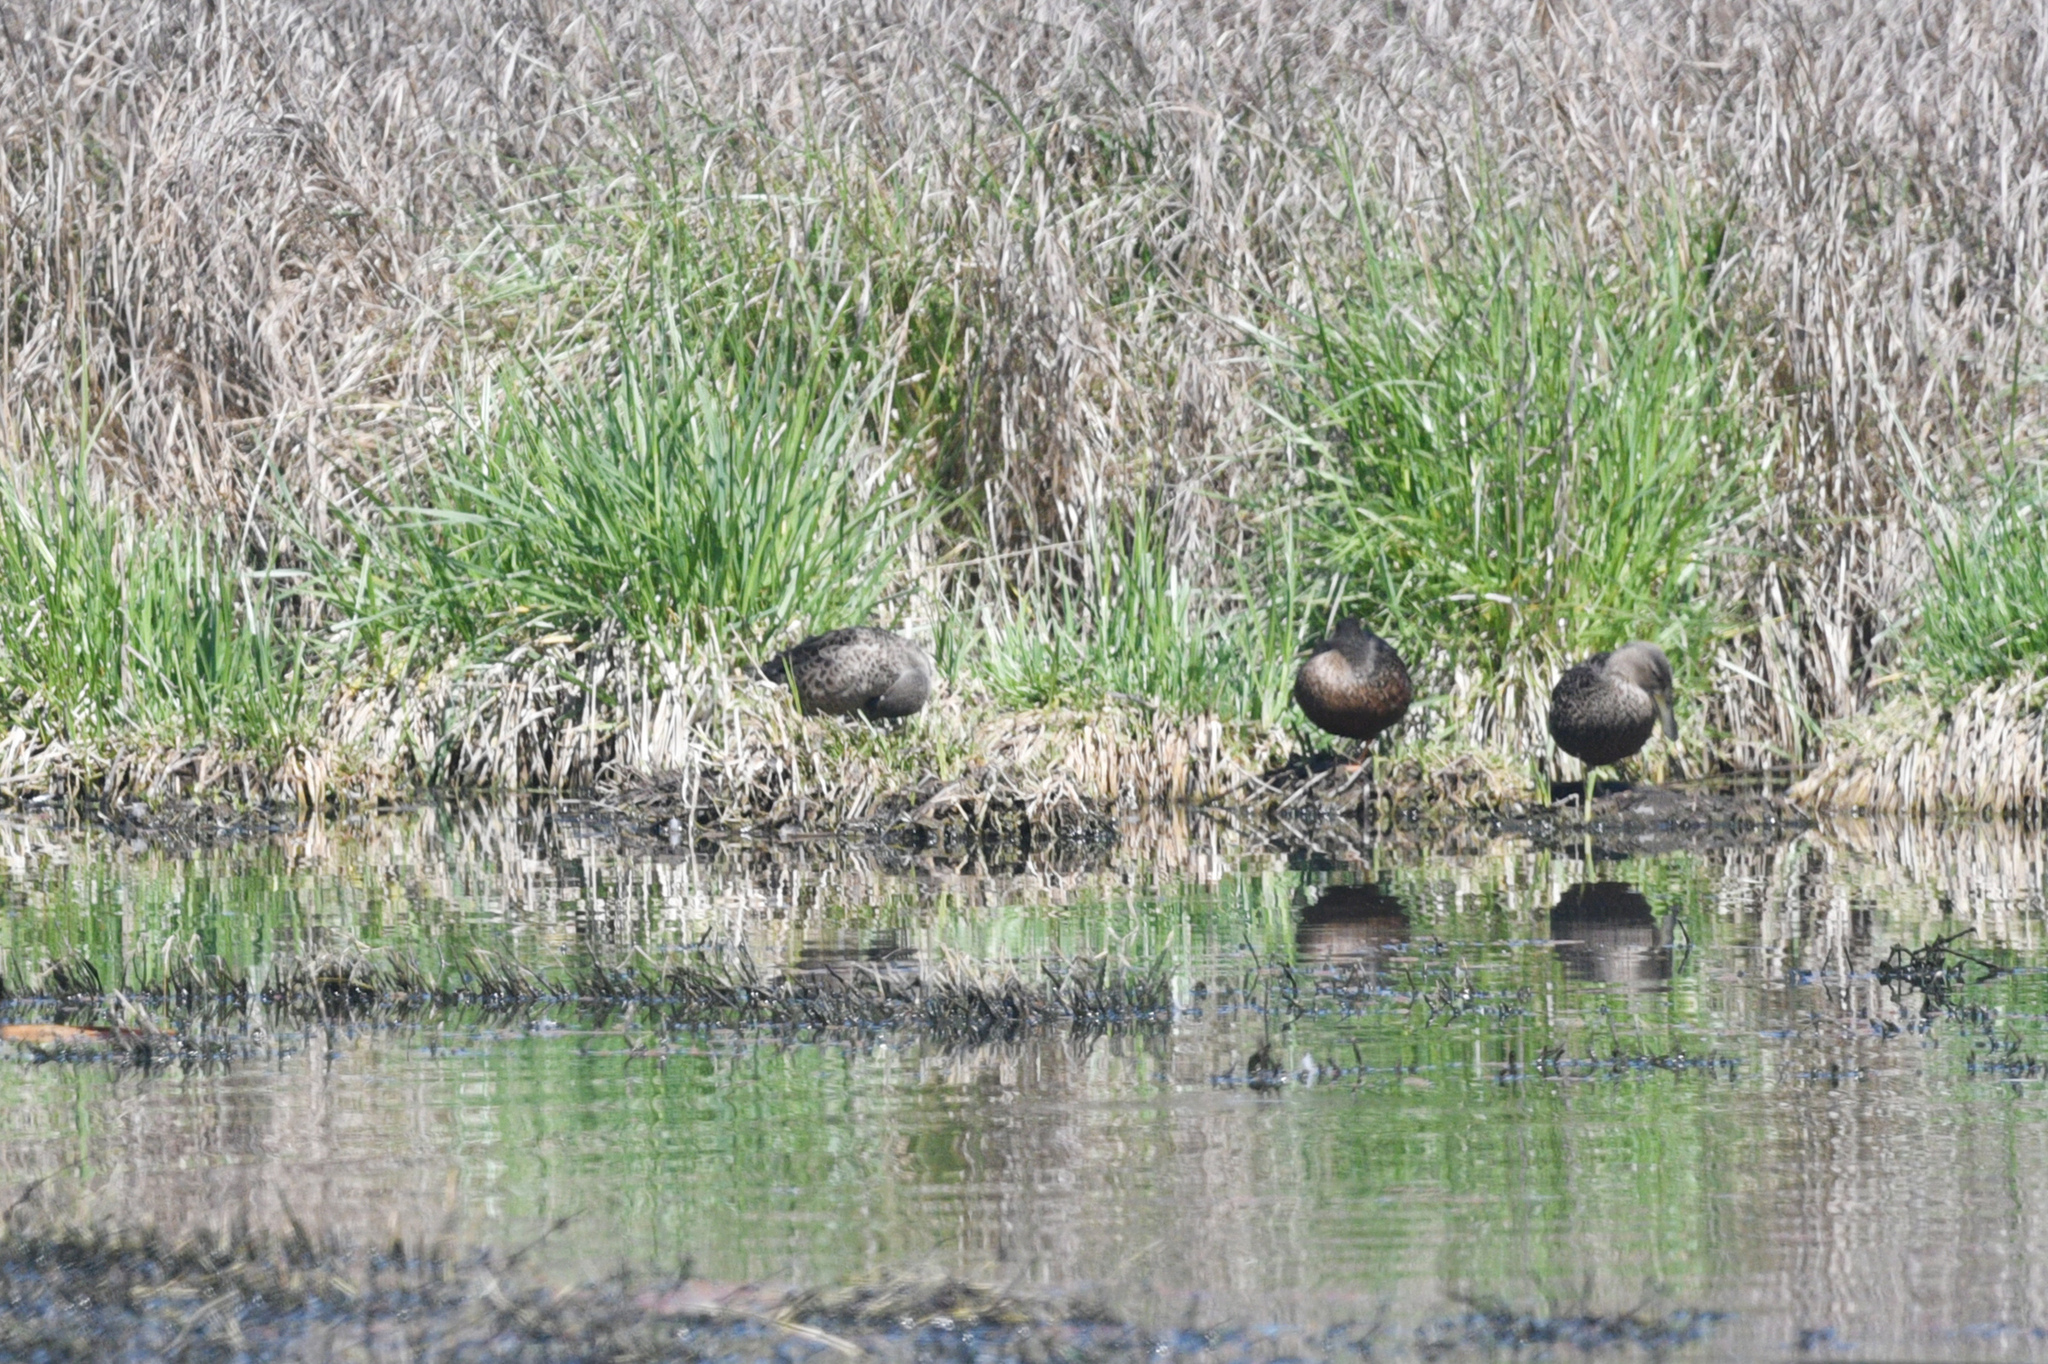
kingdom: Animalia
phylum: Chordata
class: Aves
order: Anseriformes
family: Anatidae
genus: Spatula
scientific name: Spatula rhynchotis
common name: Australian shoveler
